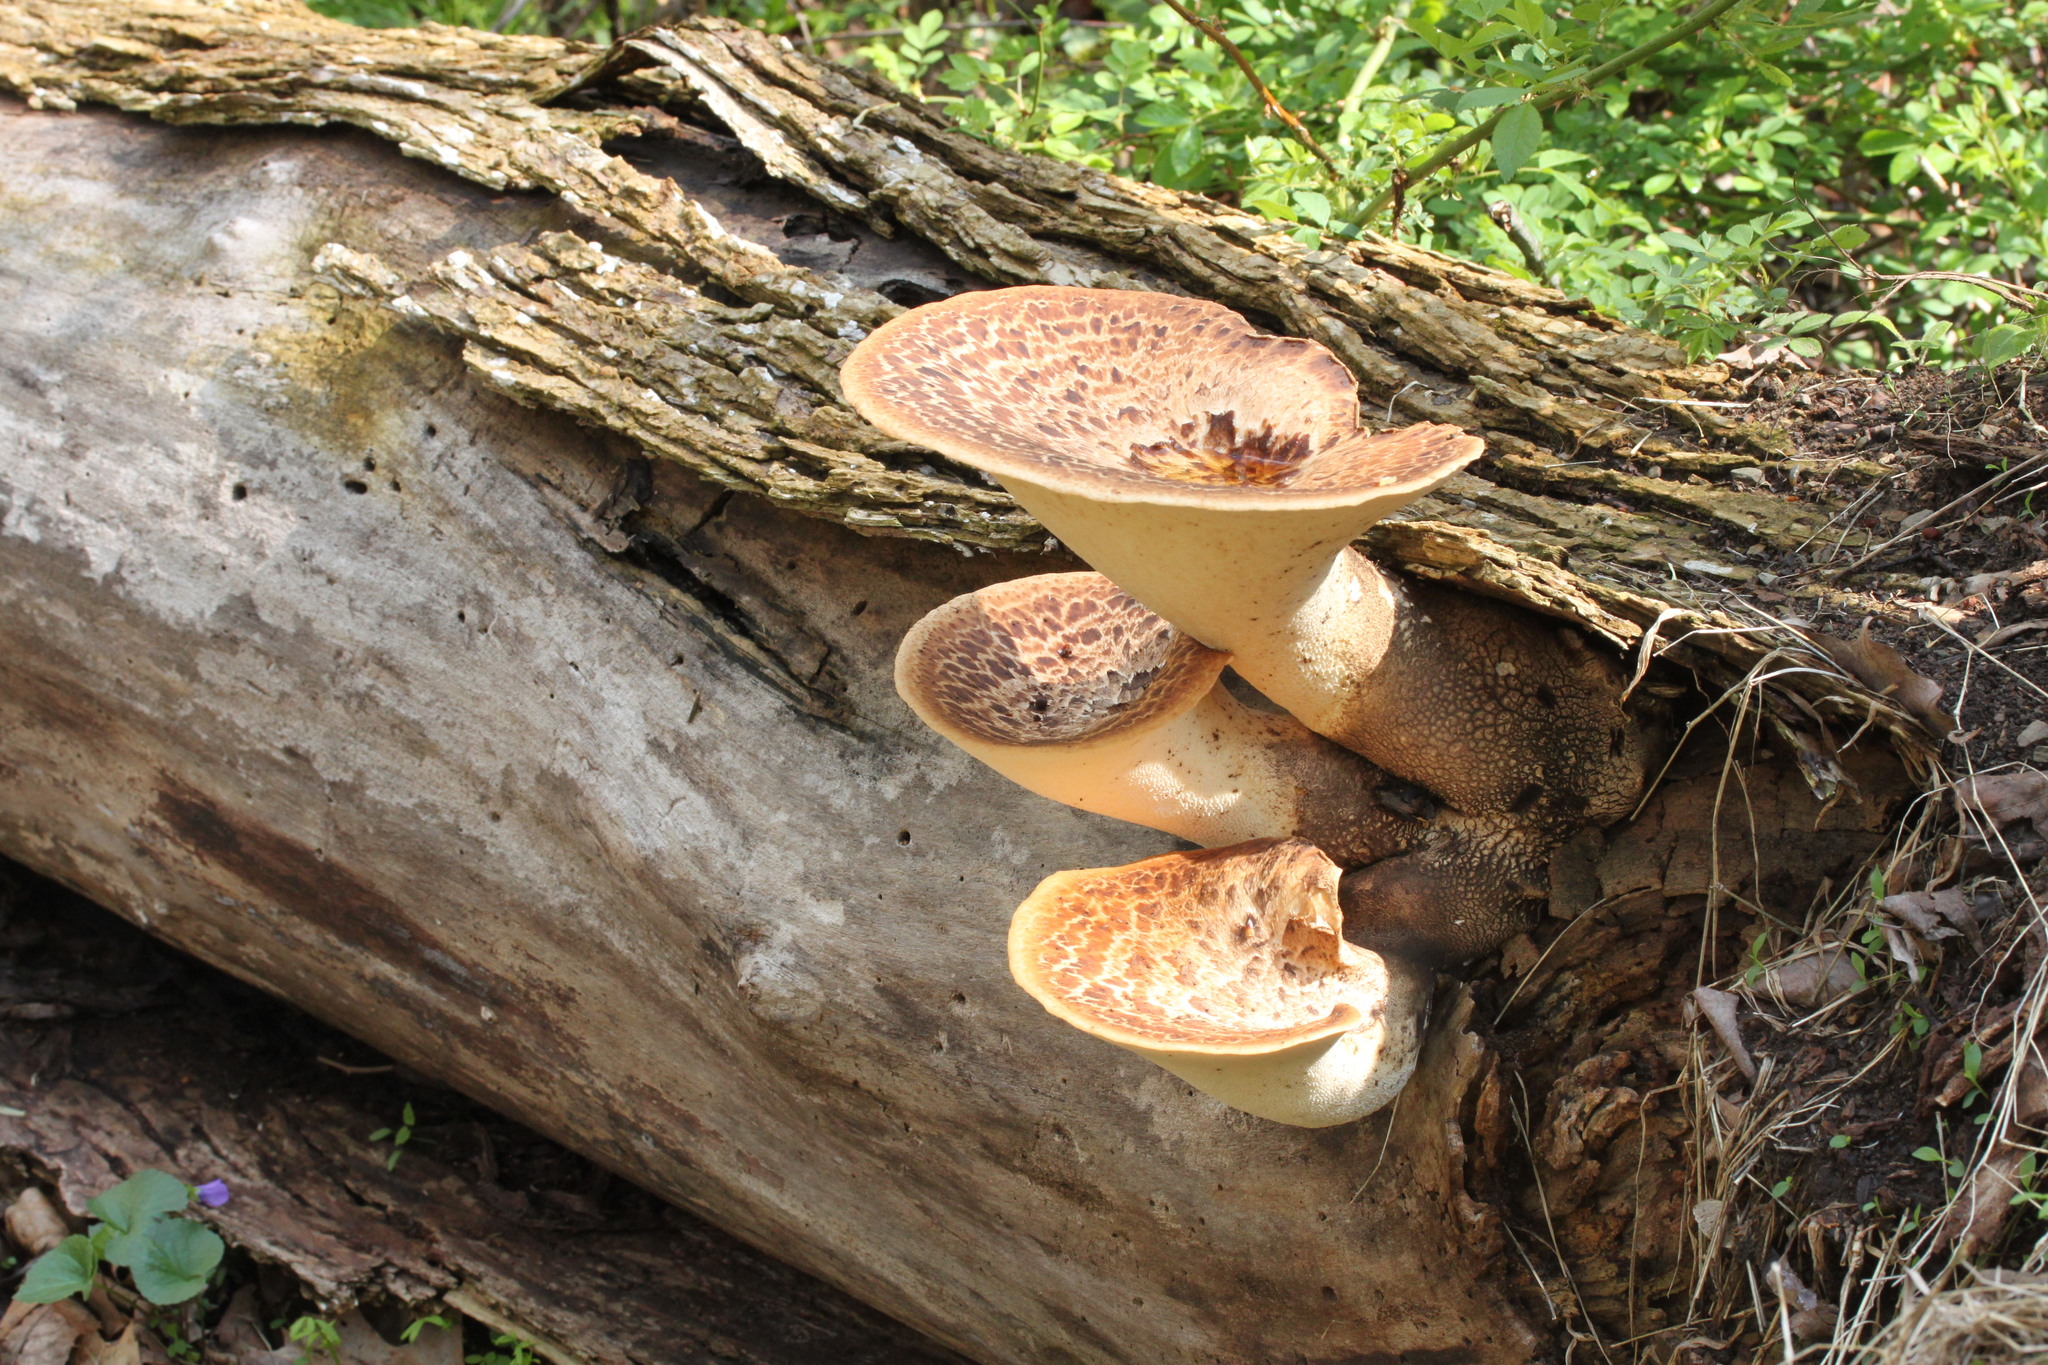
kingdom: Fungi
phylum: Basidiomycota
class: Agaricomycetes
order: Polyporales
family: Polyporaceae
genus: Cerioporus
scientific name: Cerioporus squamosus
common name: Dryad's saddle
